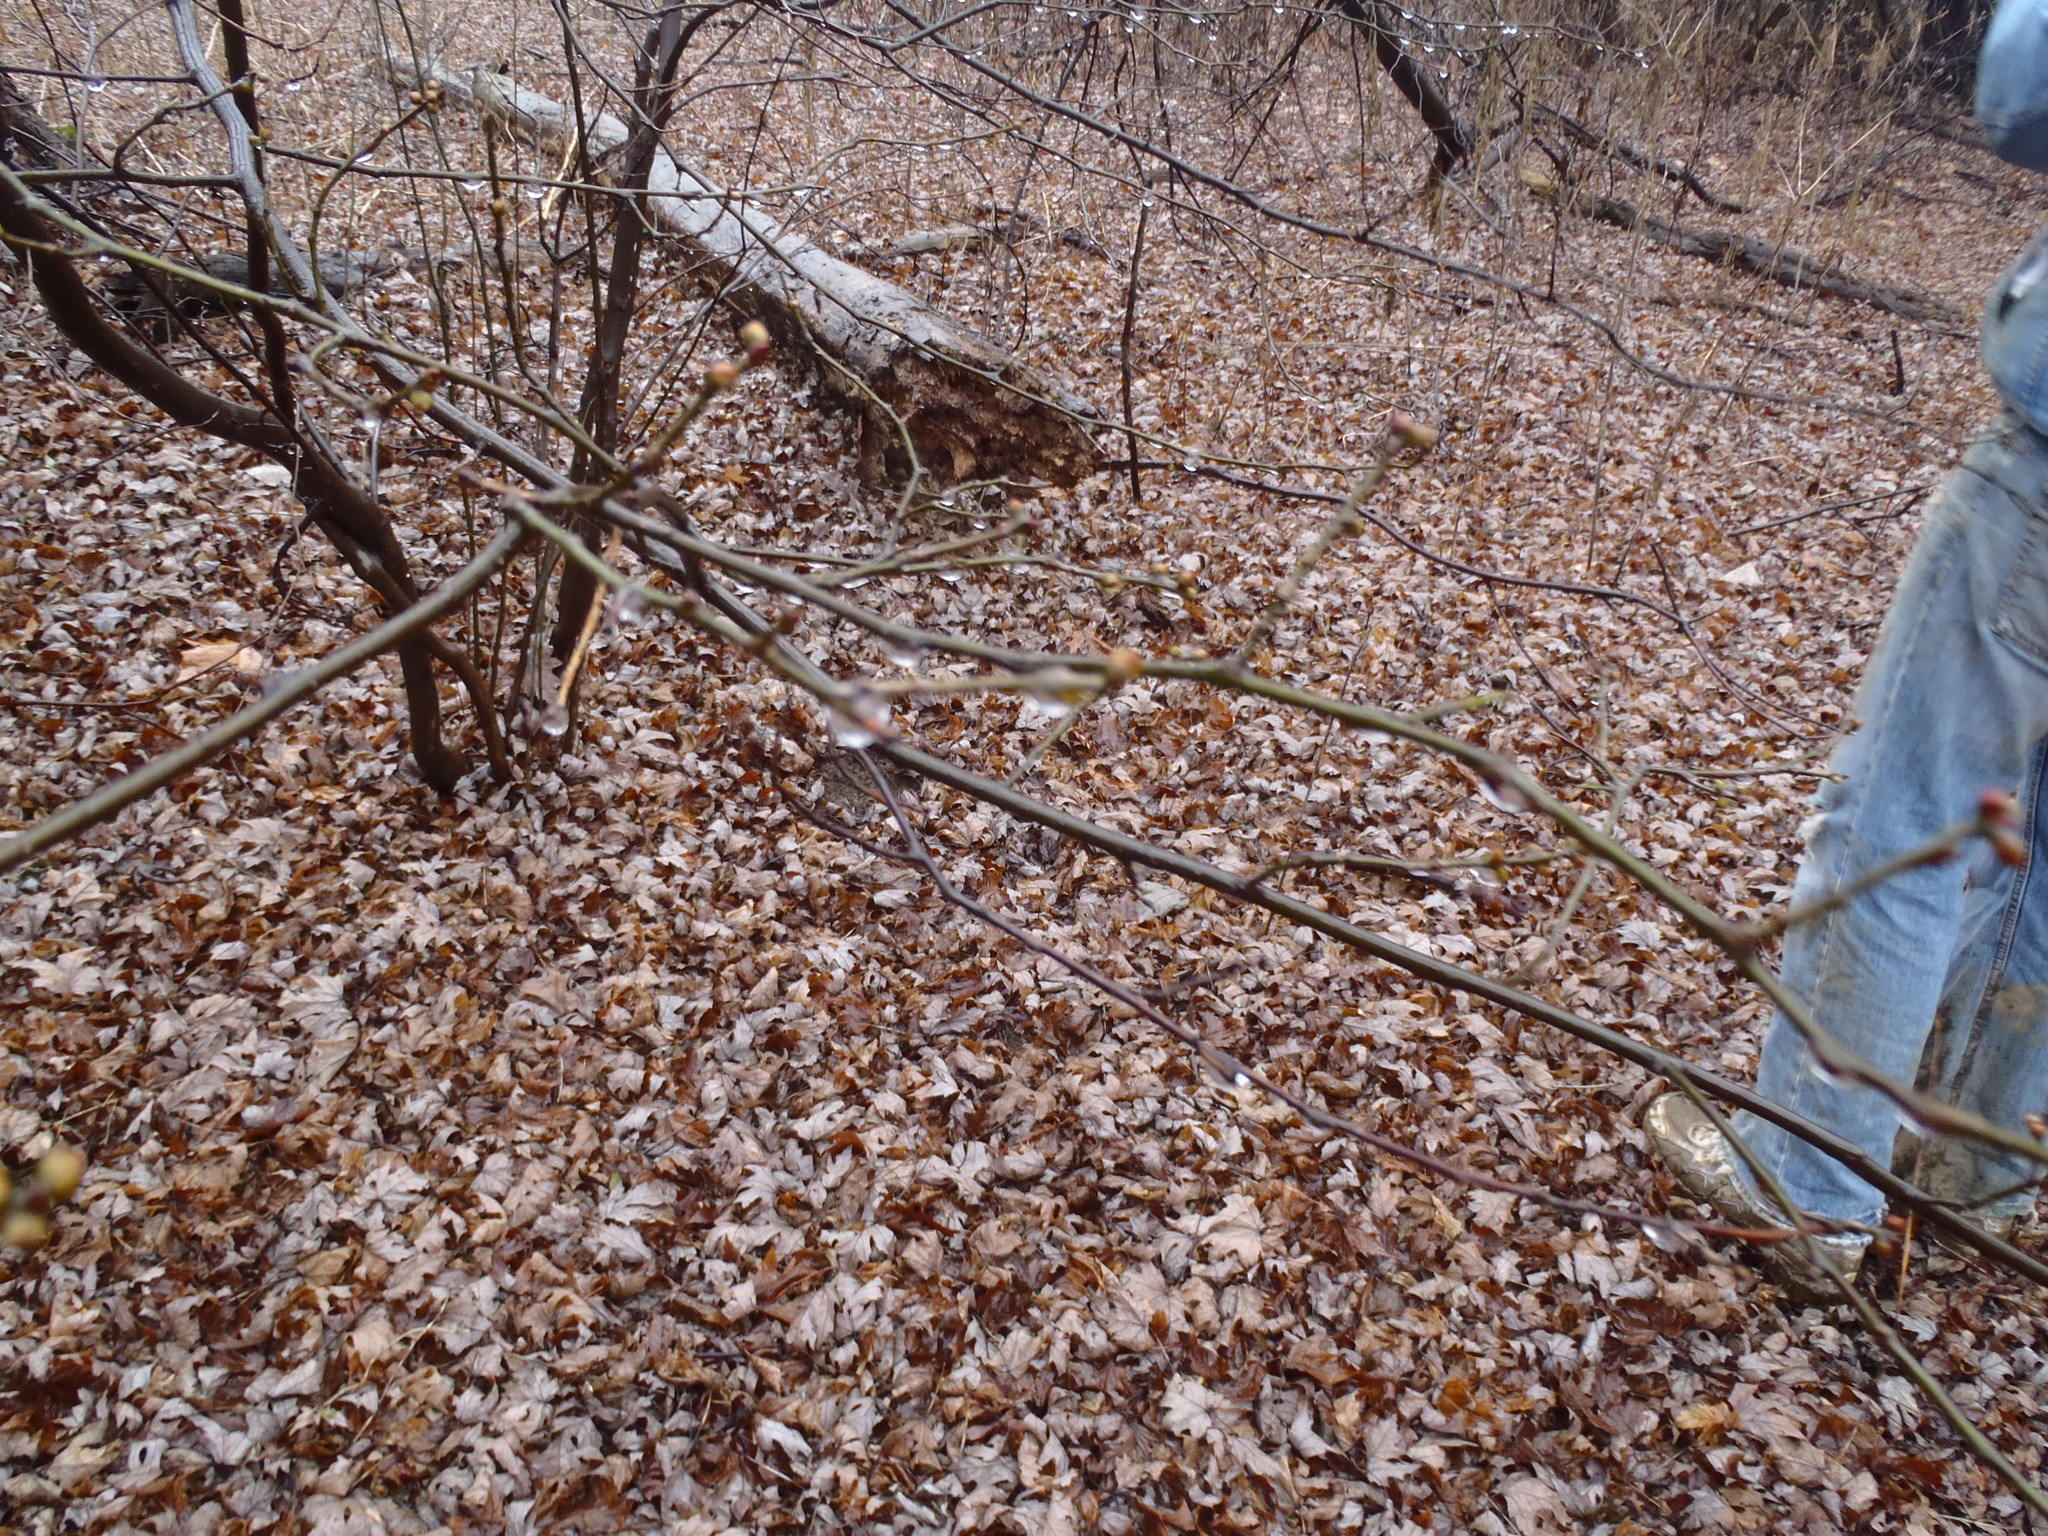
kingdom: Plantae
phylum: Tracheophyta
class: Magnoliopsida
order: Laurales
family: Lauraceae
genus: Lindera
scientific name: Lindera benzoin
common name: Spicebush
